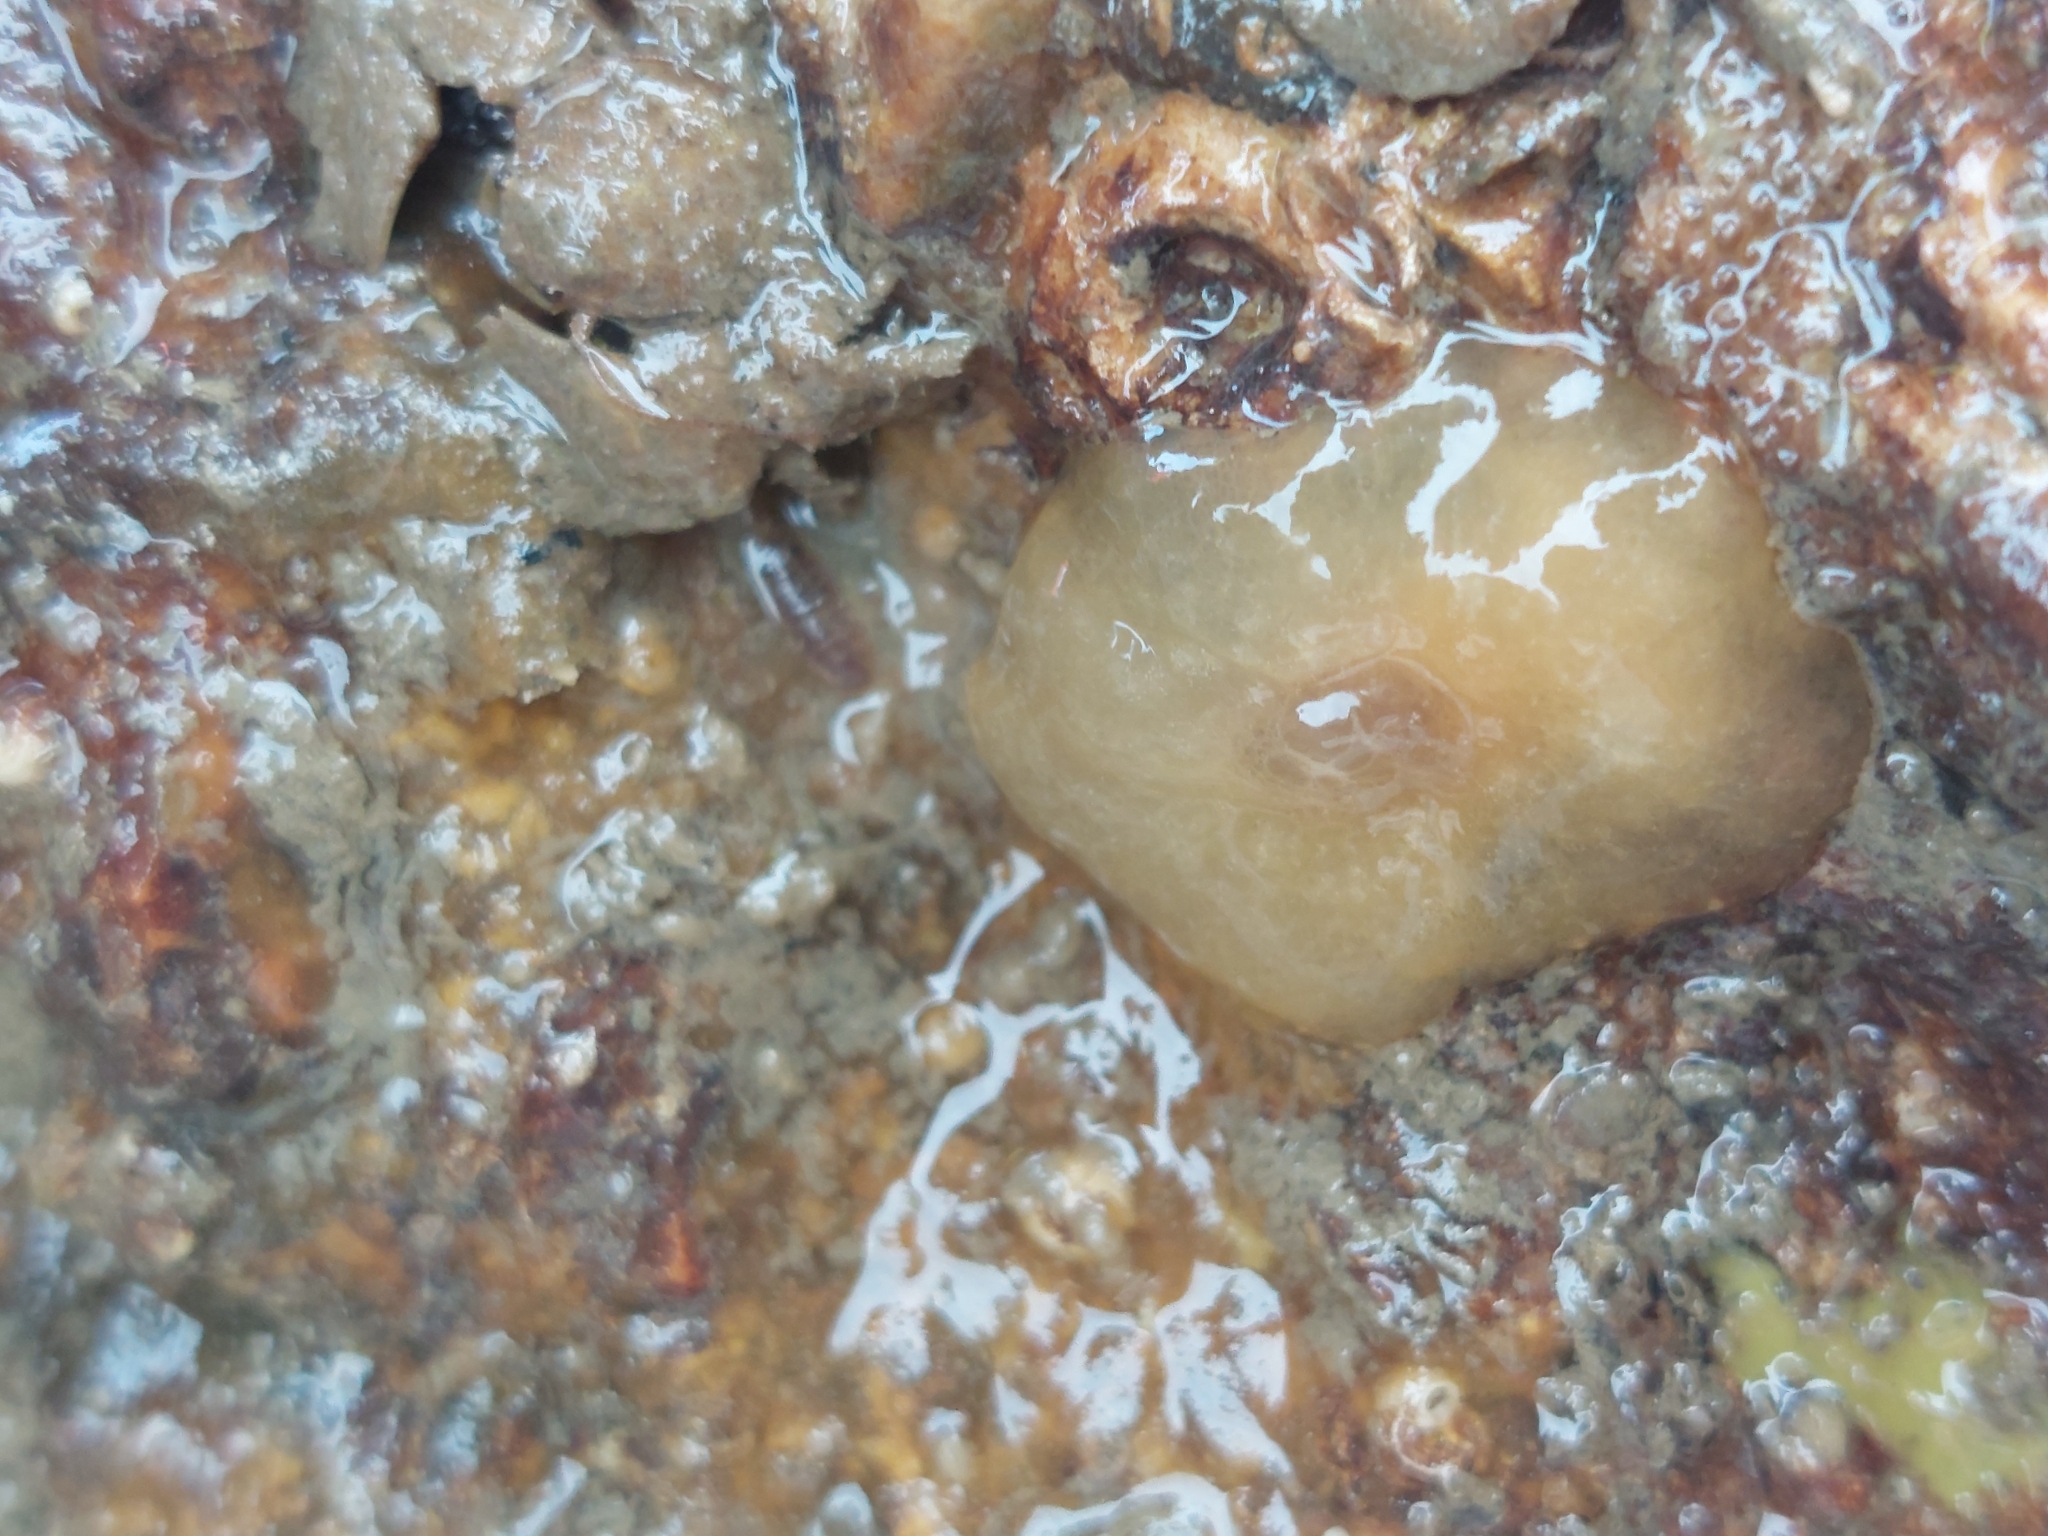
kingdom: Animalia
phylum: Mollusca
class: Gastropoda
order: Pleurobranchida
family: Pleurobranchidae
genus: Berthella
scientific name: Berthella plumula
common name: Yellow-plumed sea slug
